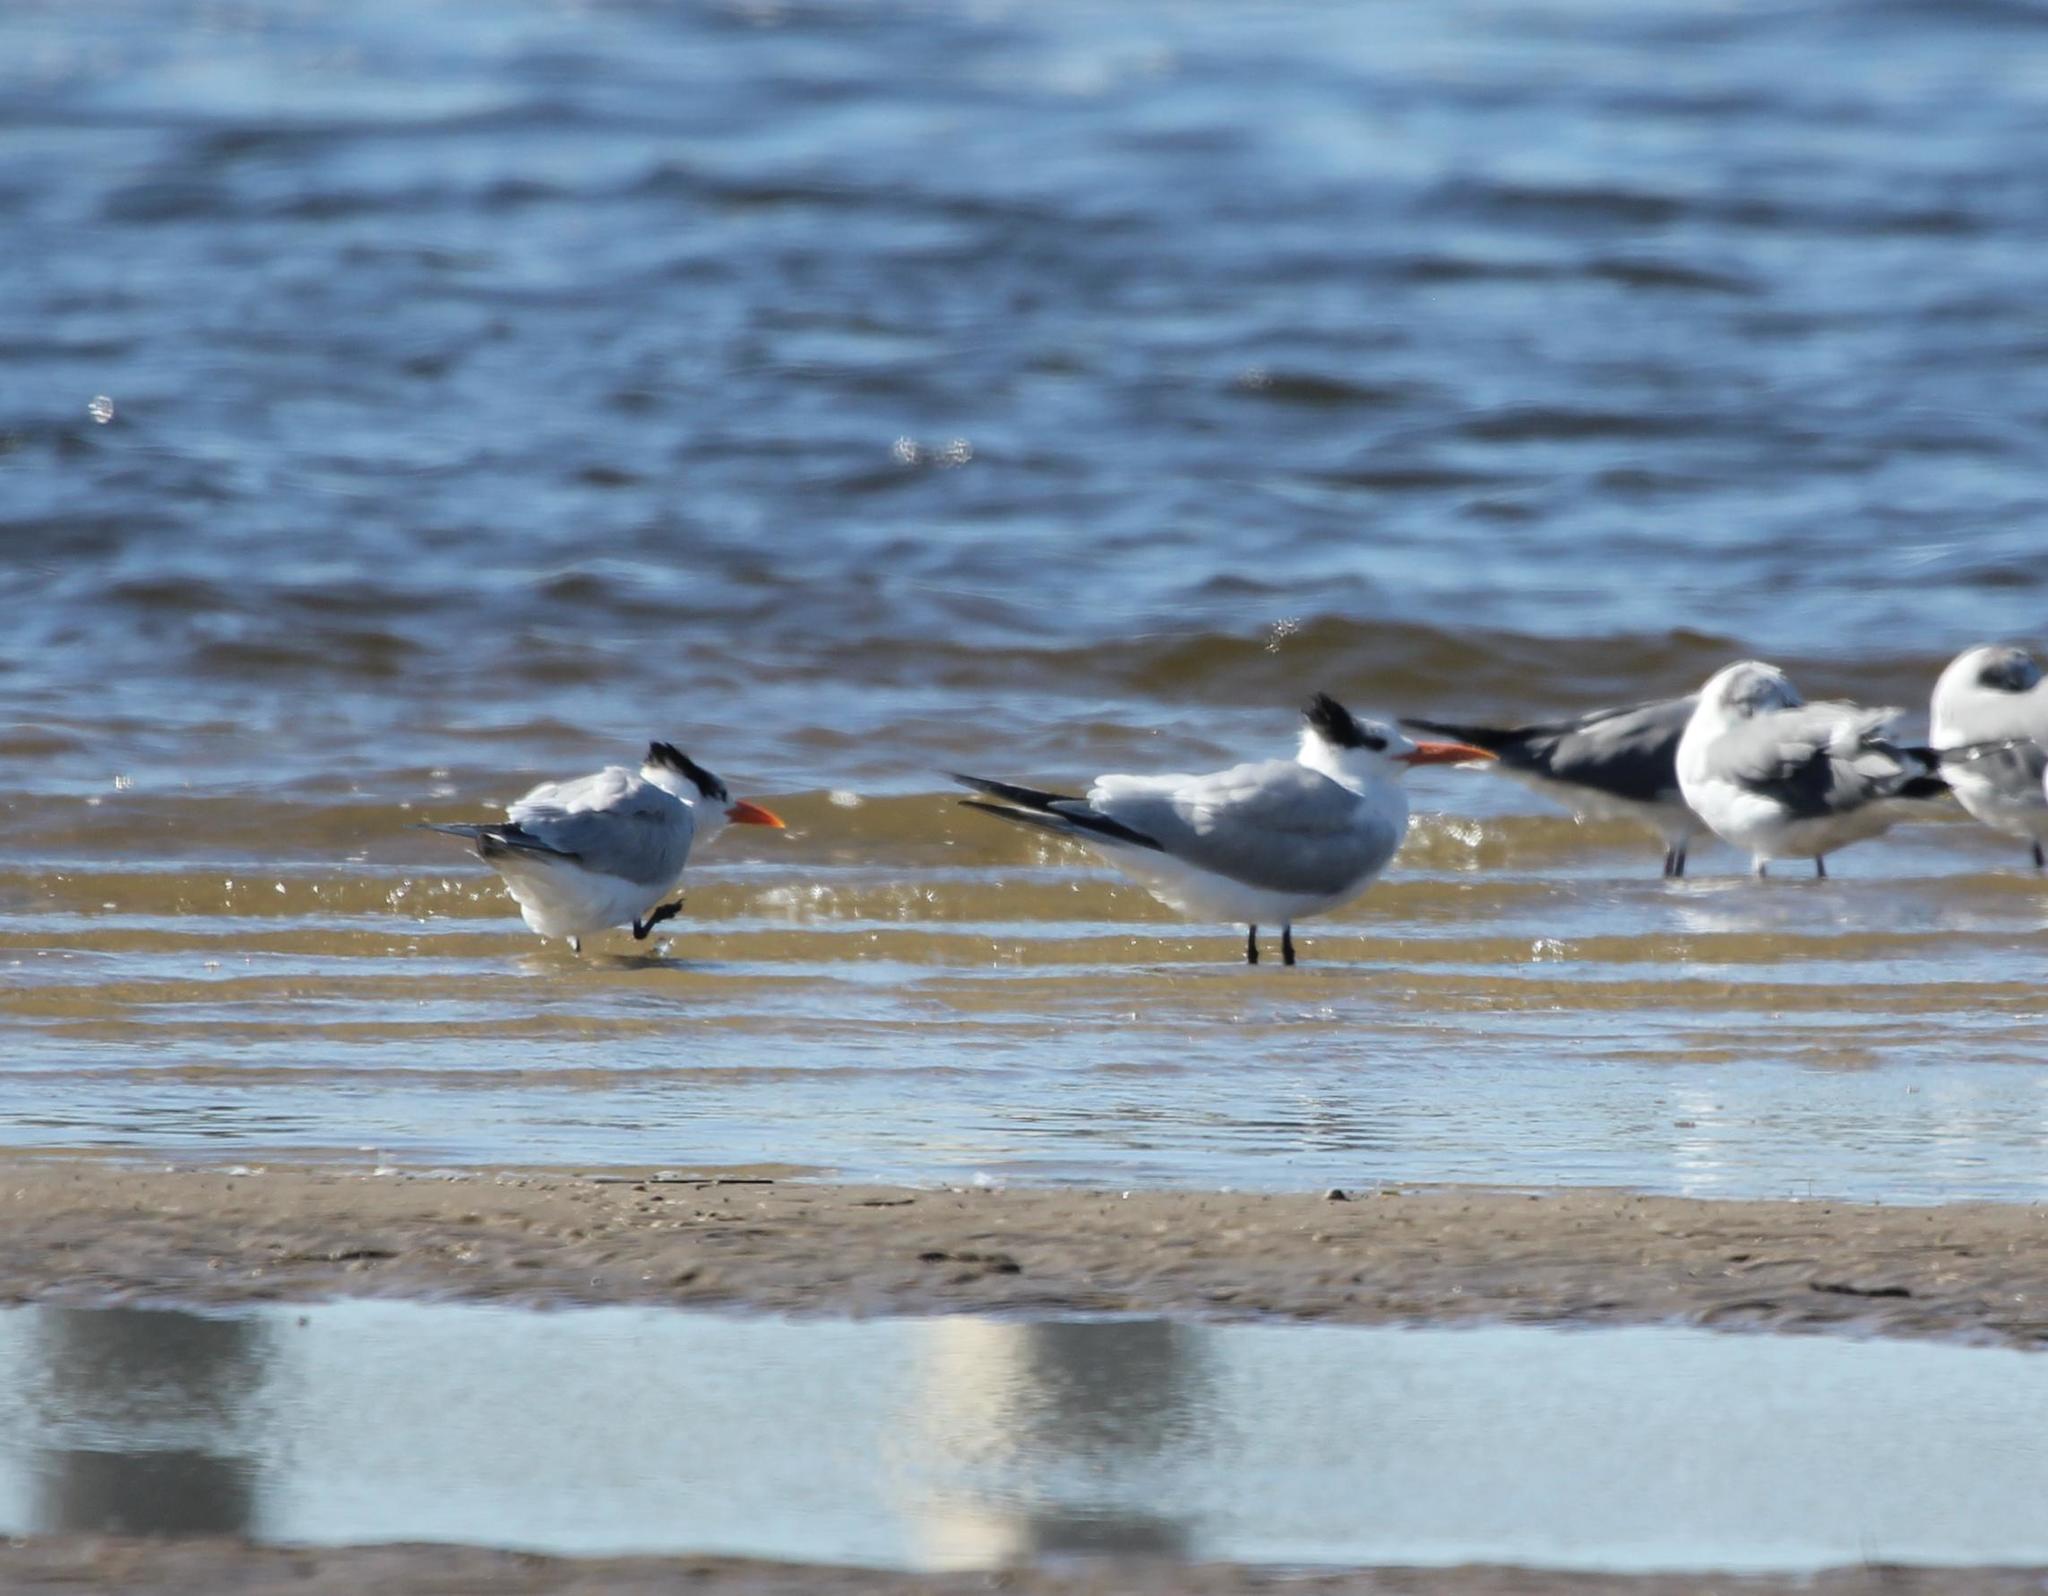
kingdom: Animalia
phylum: Chordata
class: Aves
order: Charadriiformes
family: Laridae
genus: Thalasseus
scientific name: Thalasseus maximus
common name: Royal tern
